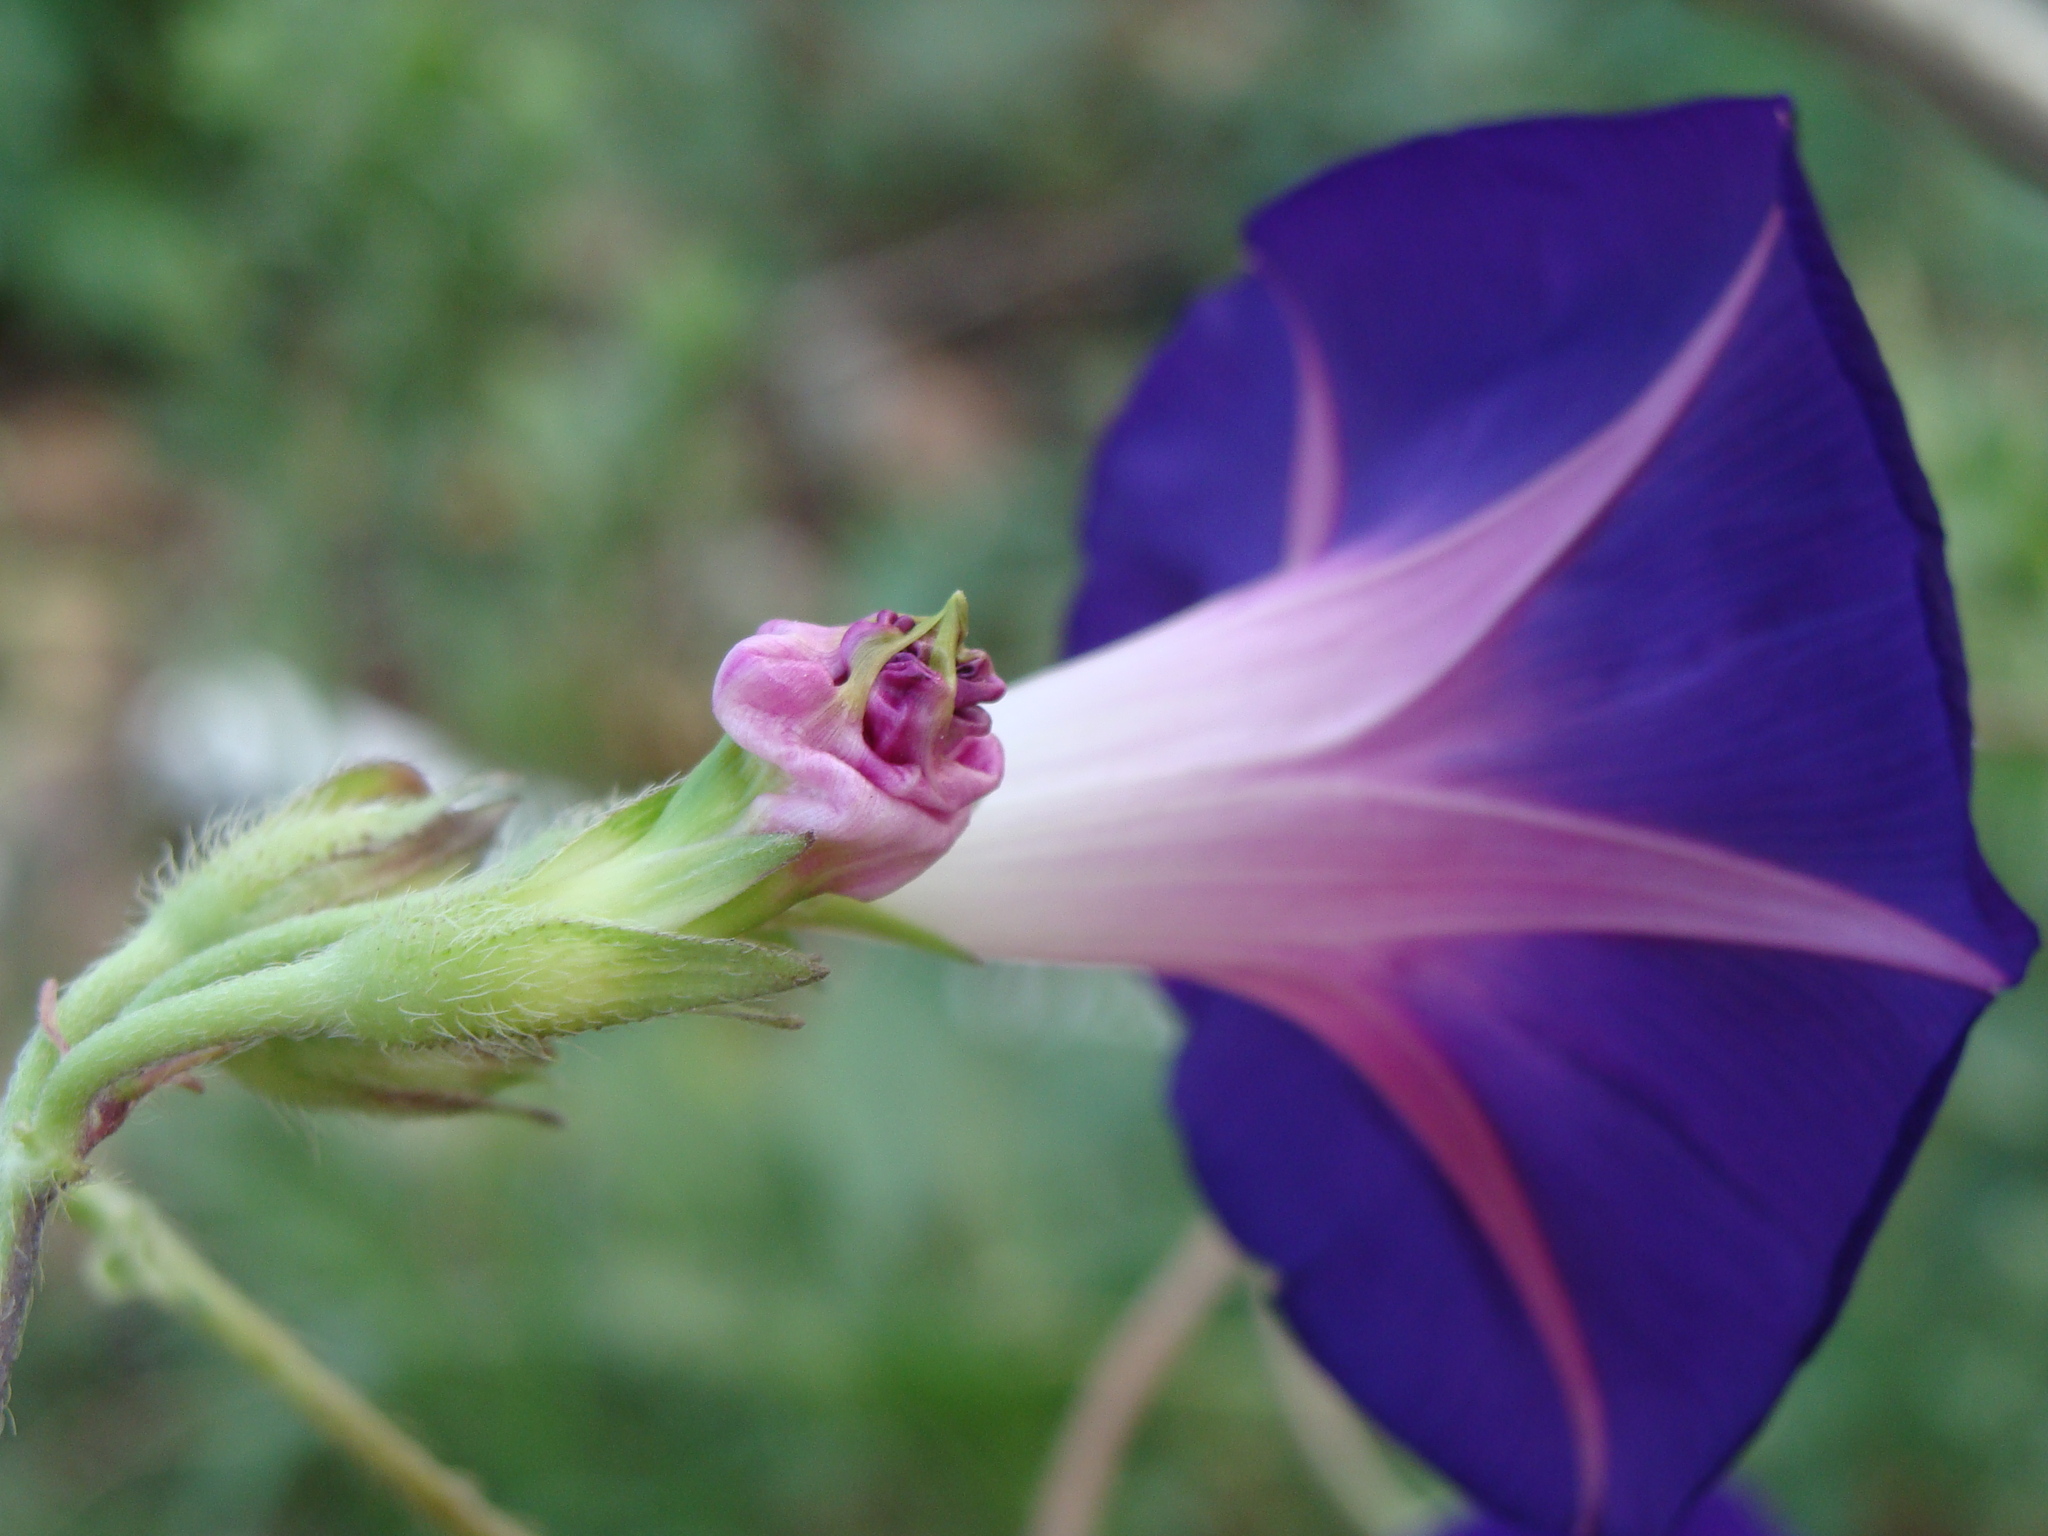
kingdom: Plantae
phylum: Tracheophyta
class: Magnoliopsida
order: Solanales
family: Convolvulaceae
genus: Ipomoea
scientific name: Ipomoea purpurea
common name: Common morning-glory
